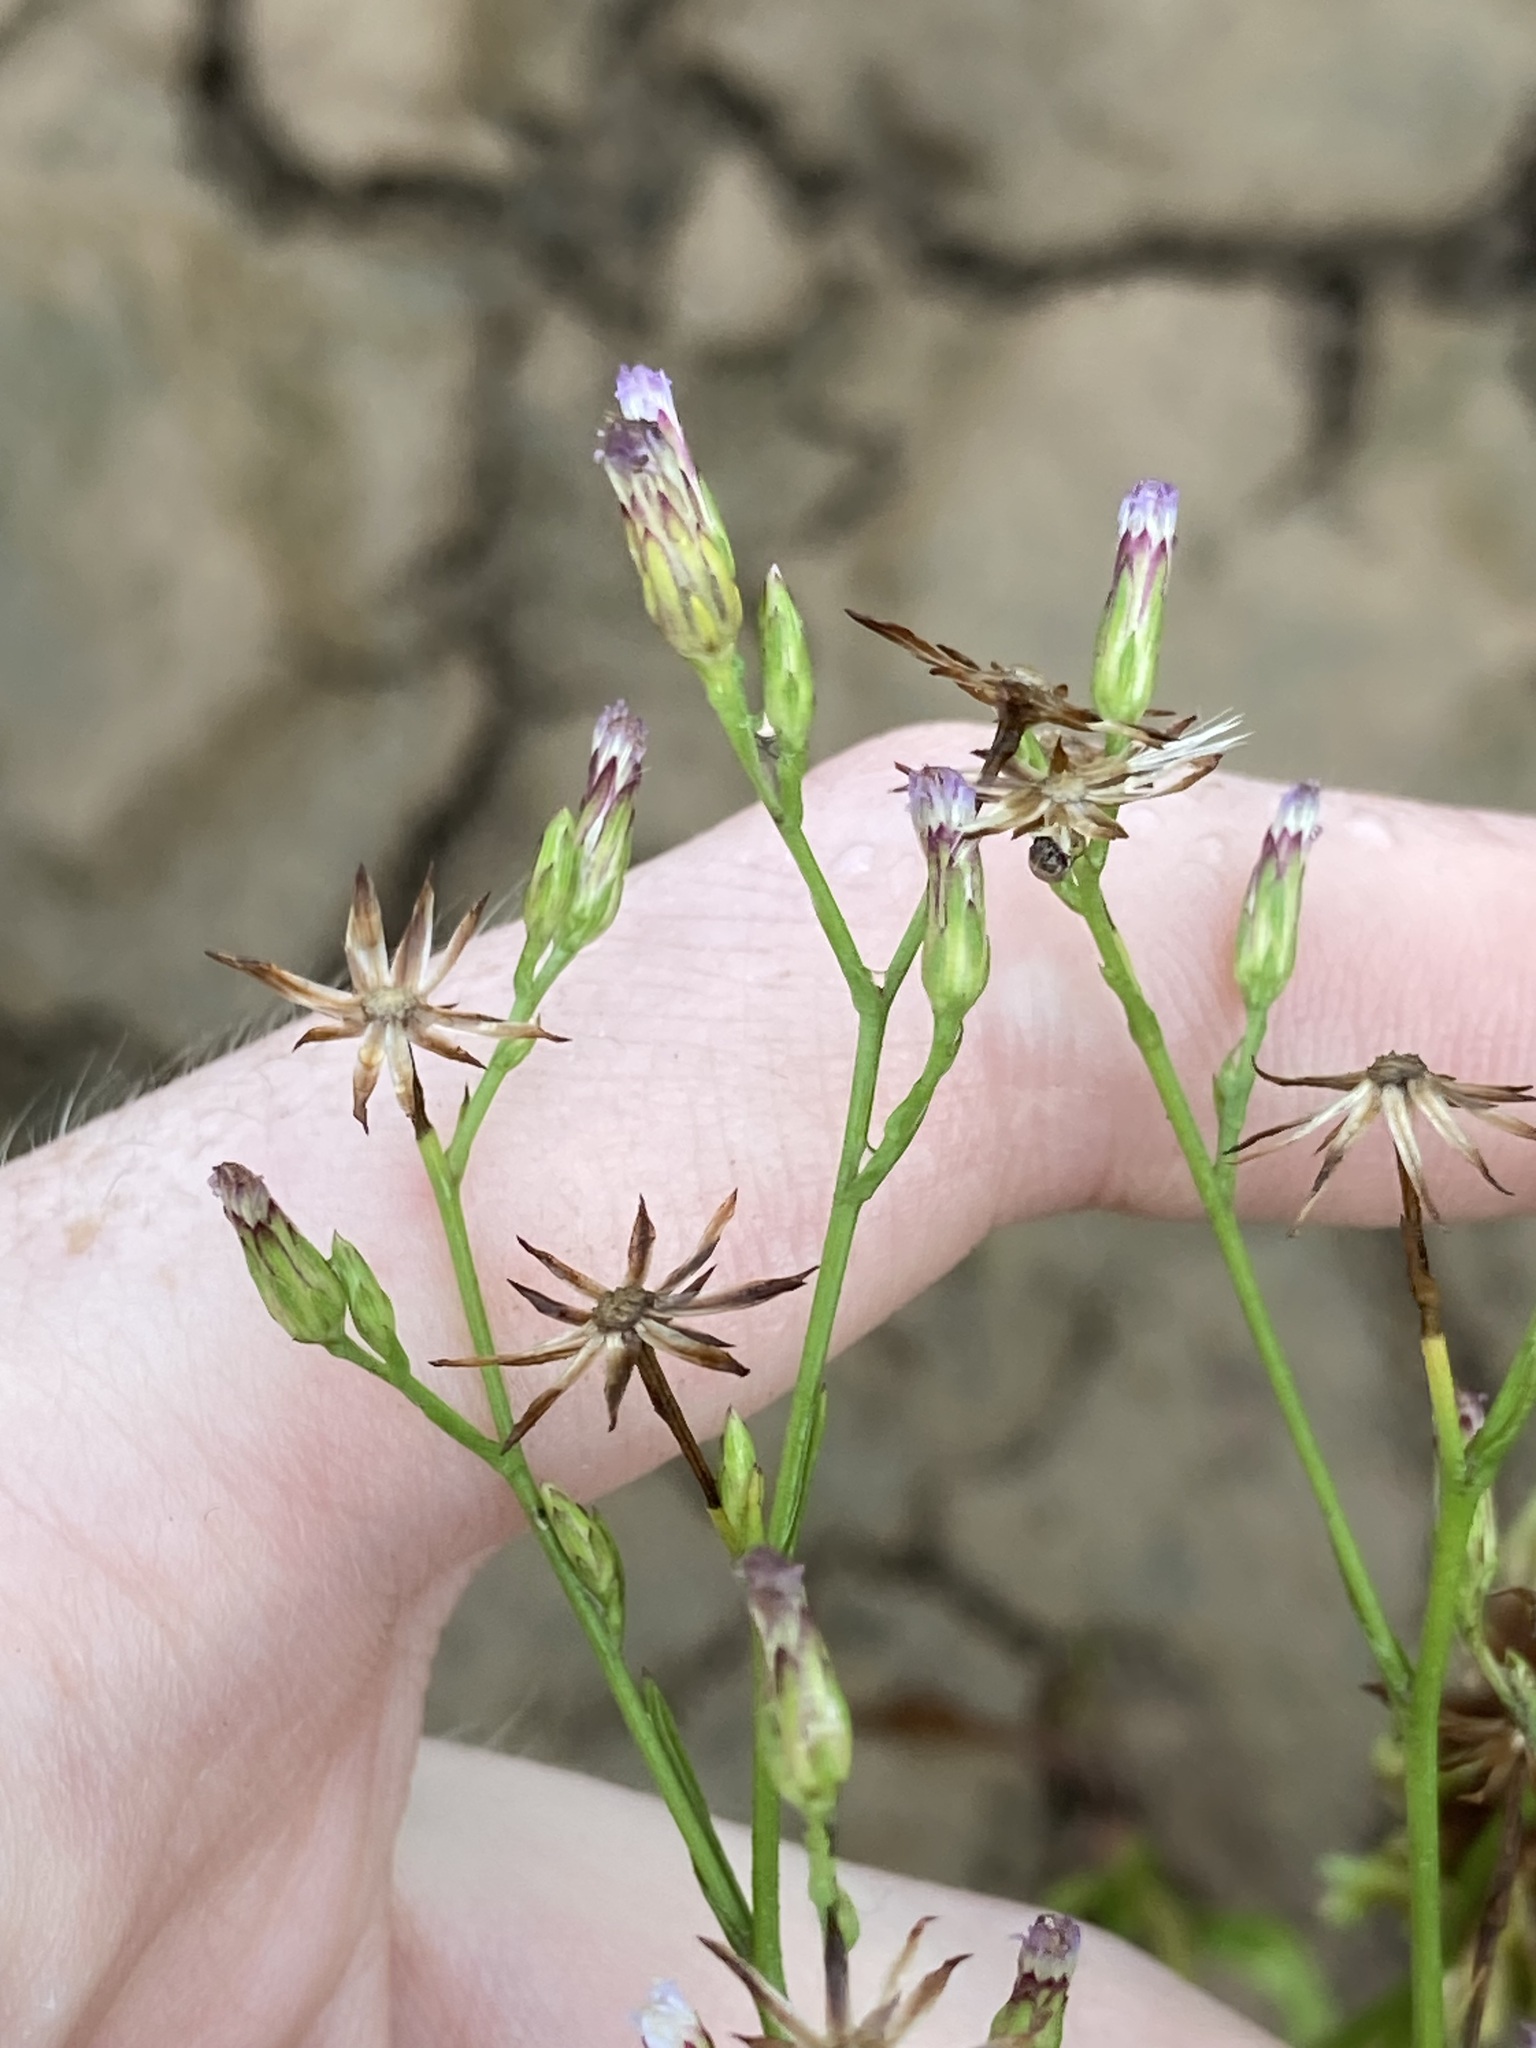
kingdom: Plantae
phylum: Tracheophyta
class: Magnoliopsida
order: Asterales
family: Asteraceae
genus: Symphyotrichum
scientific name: Symphyotrichum subulatum
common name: Annual saltmarsh aster
